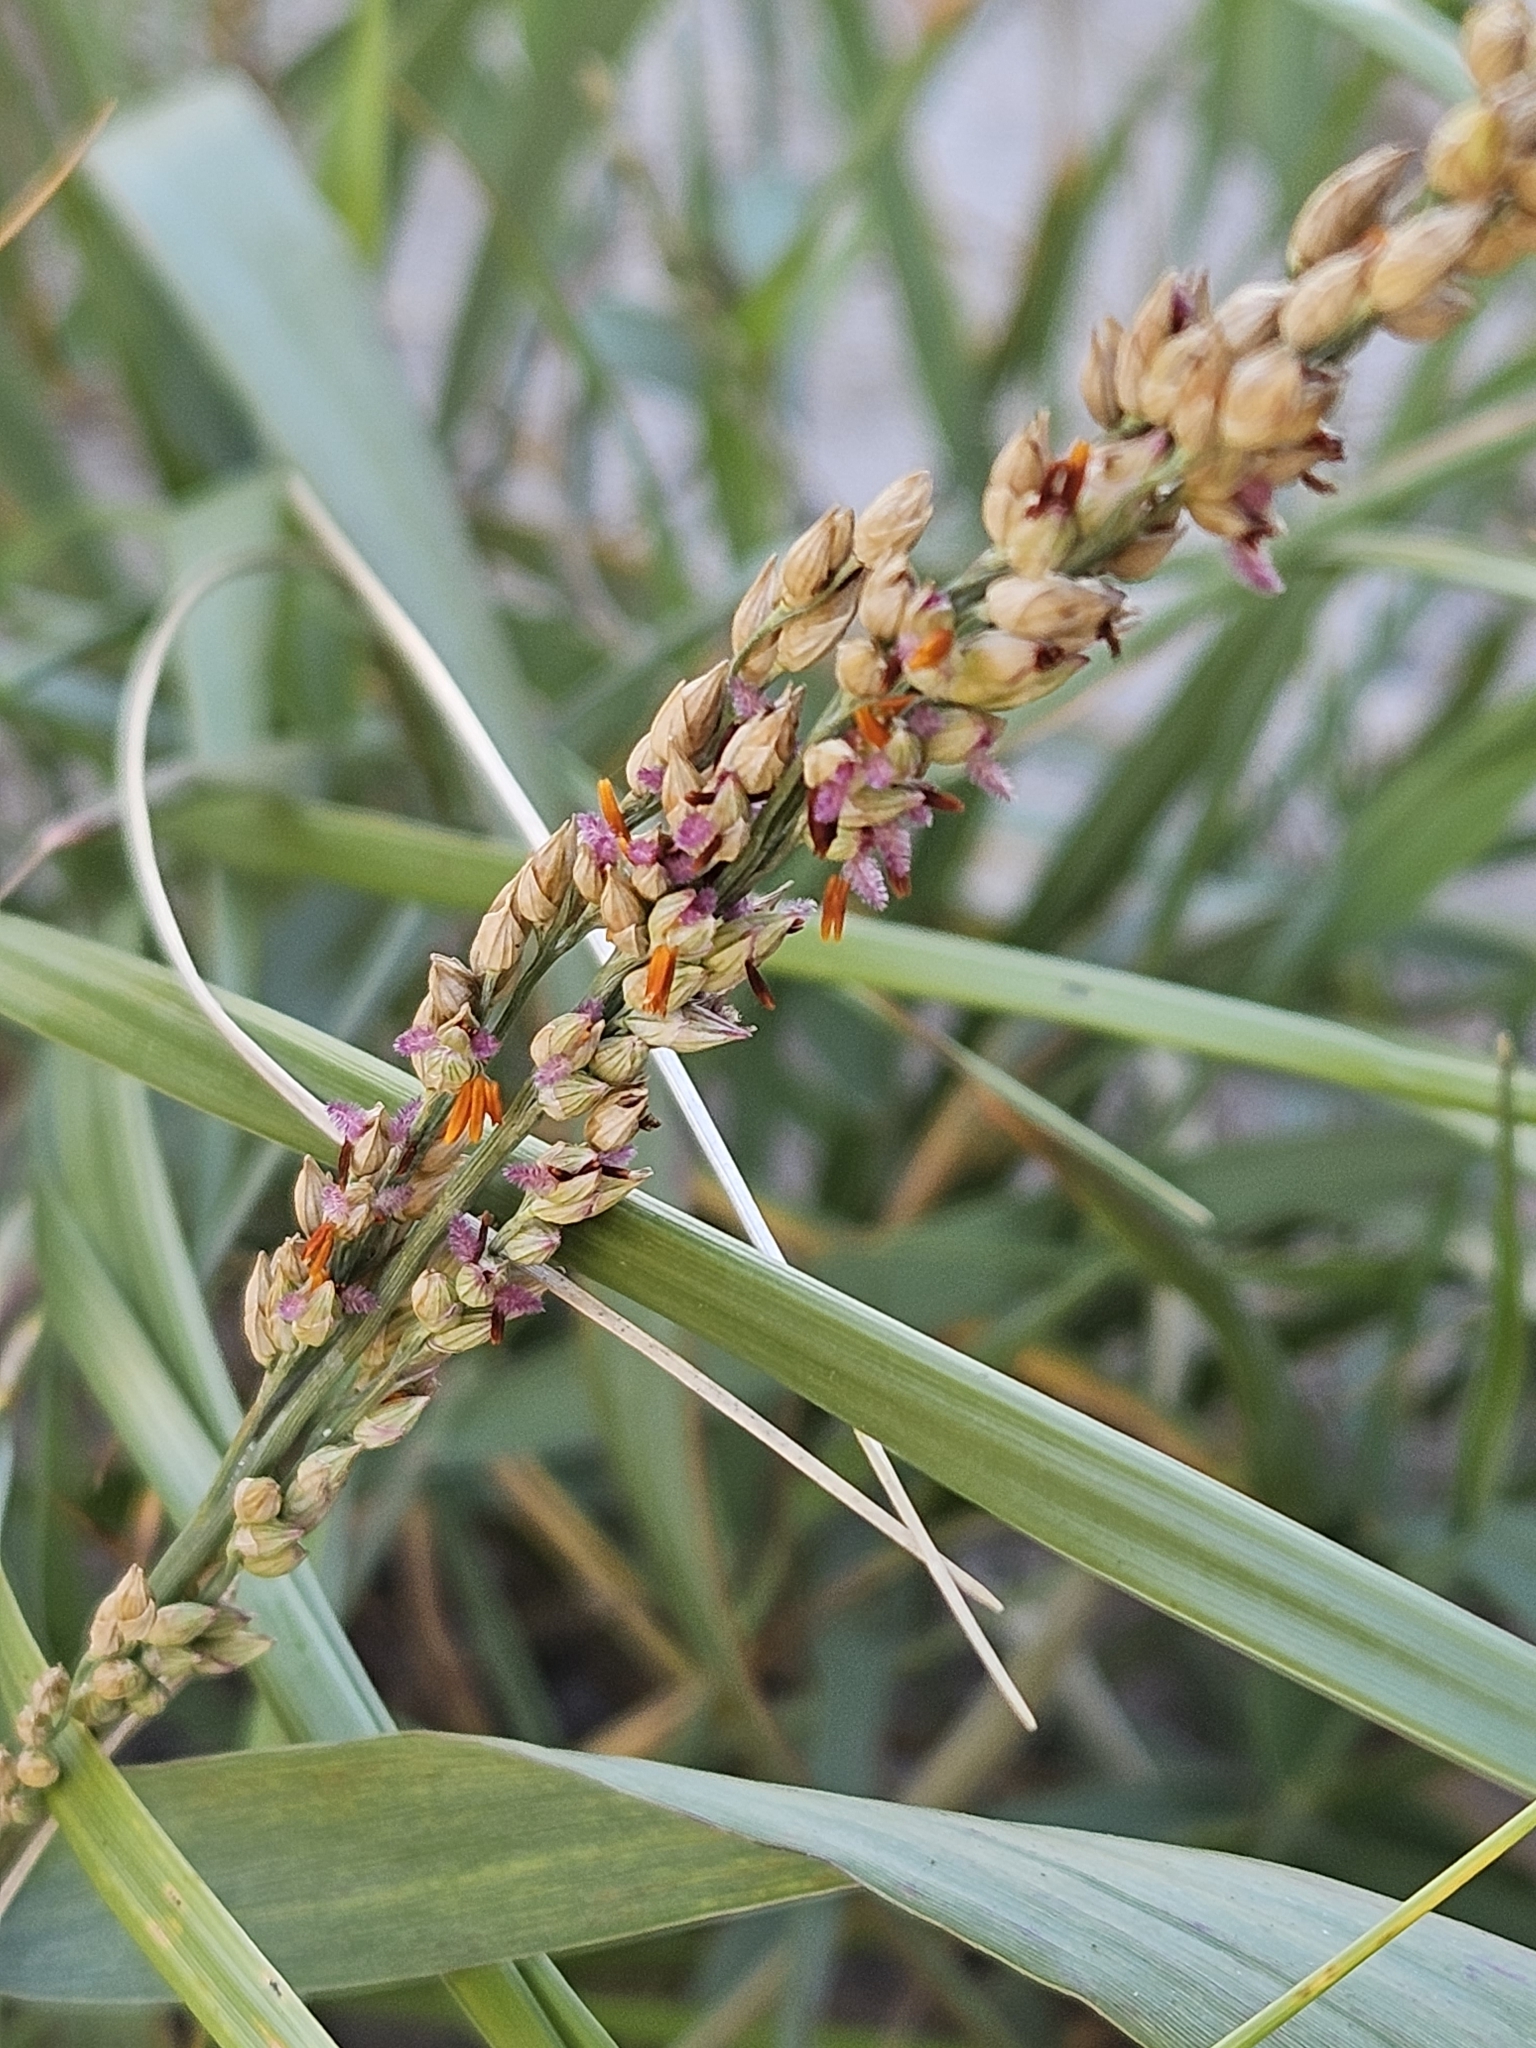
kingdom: Plantae
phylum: Tracheophyta
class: Liliopsida
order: Poales
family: Poaceae
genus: Panicum
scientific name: Panicum amarum
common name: Bitter panicum
